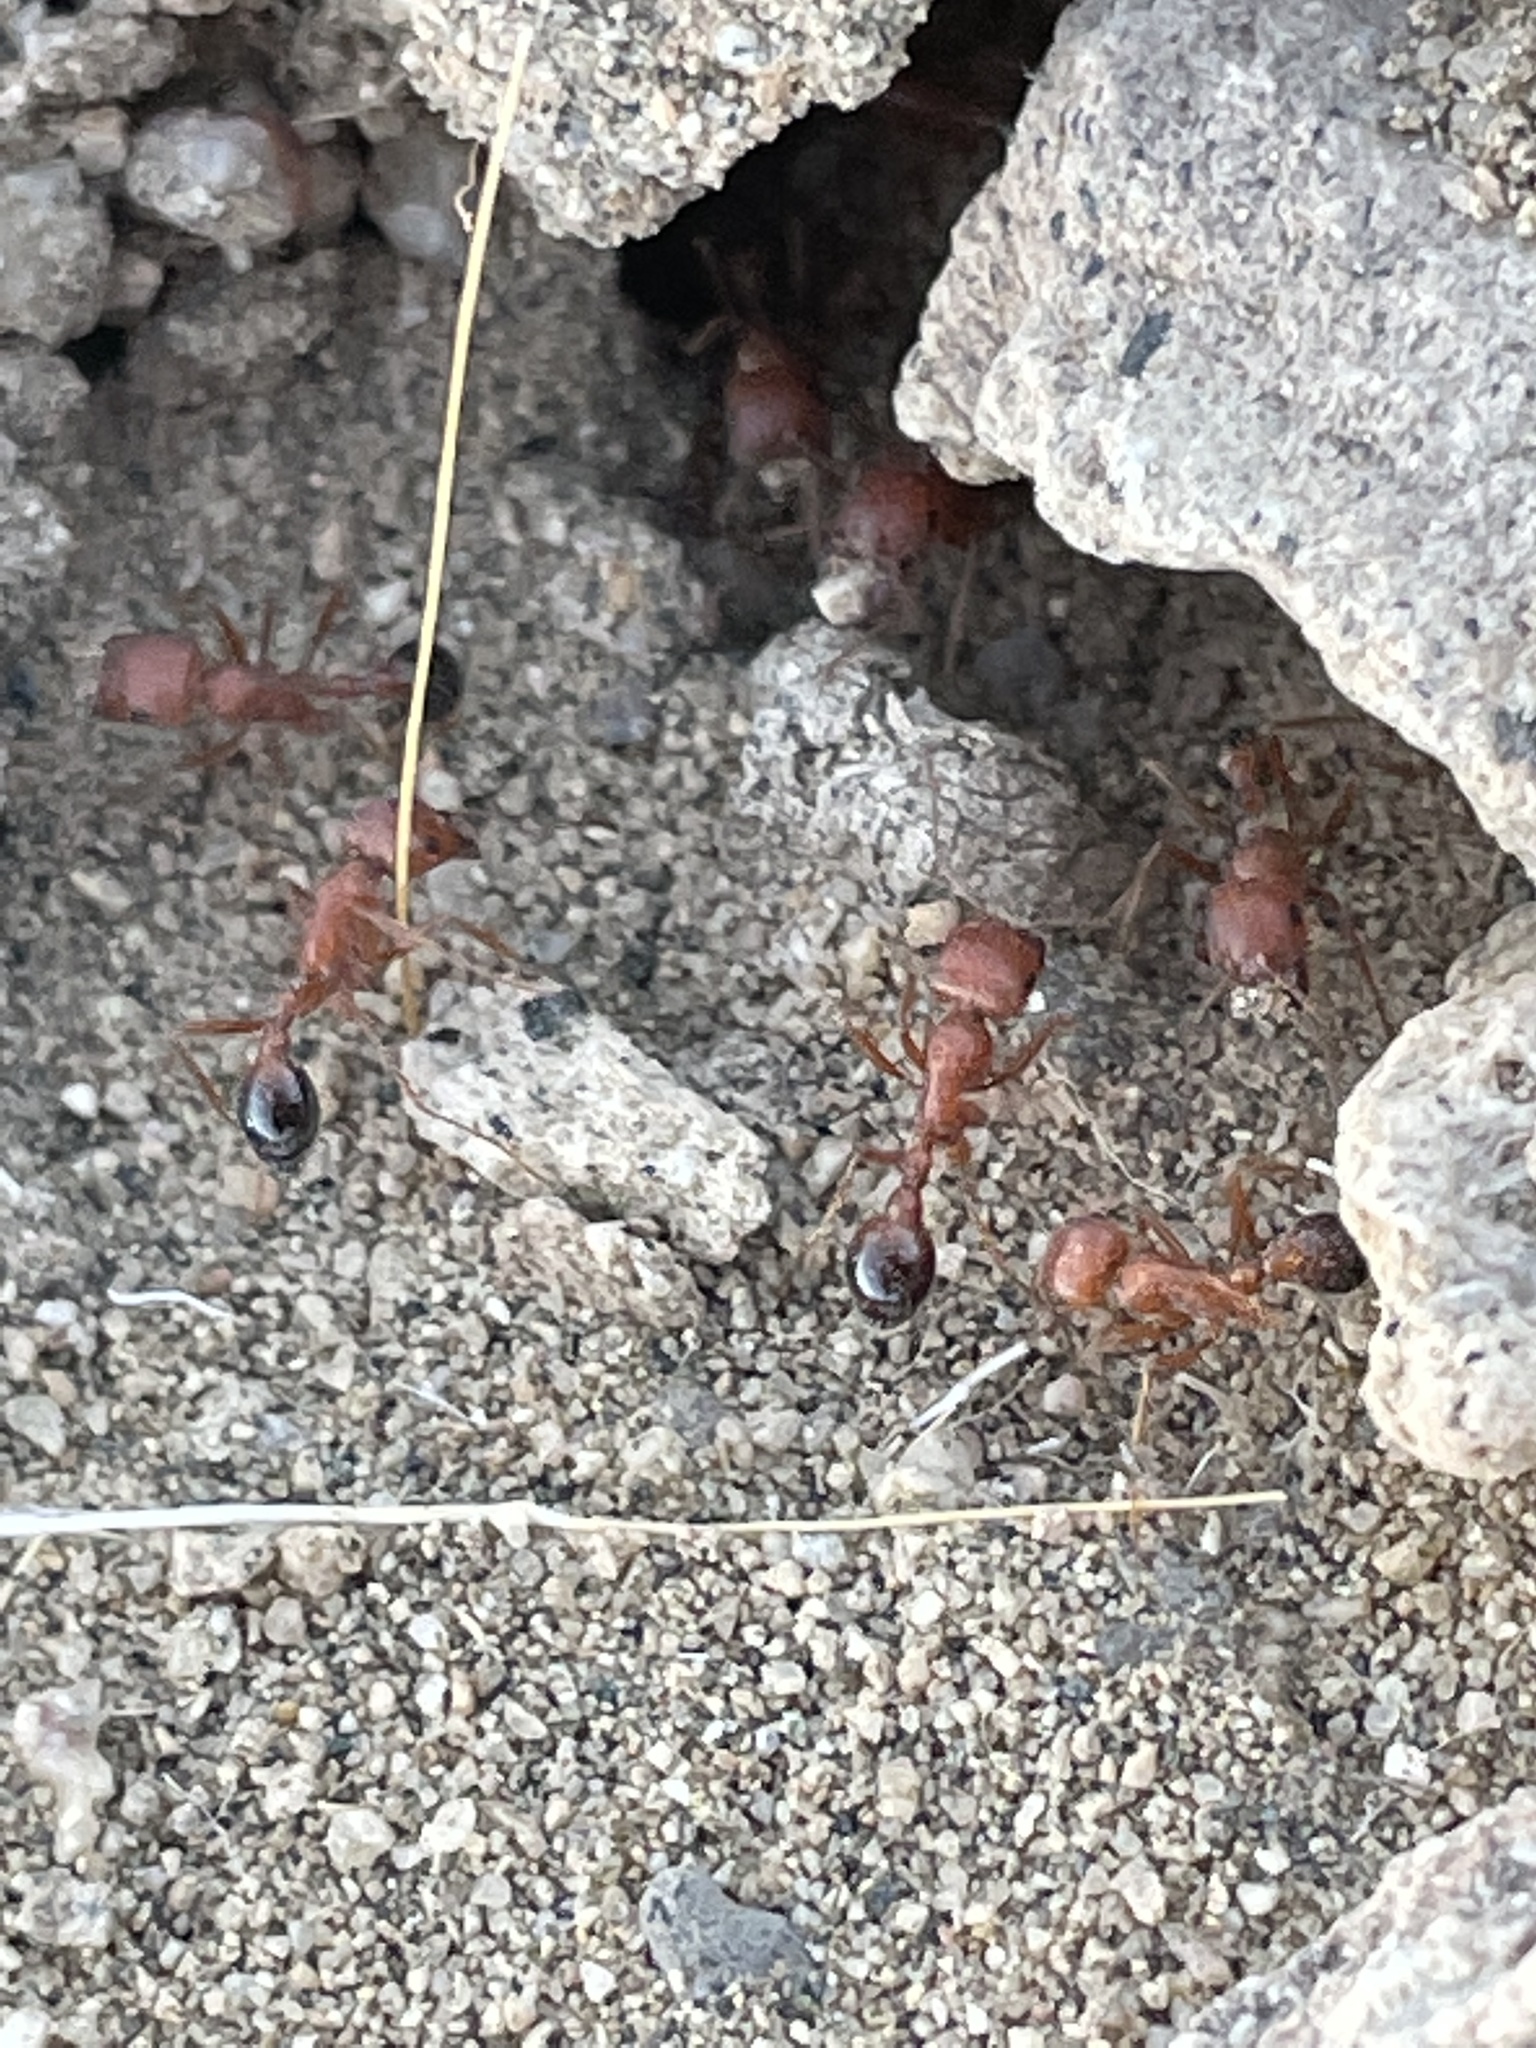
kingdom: Animalia
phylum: Arthropoda
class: Insecta
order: Hymenoptera
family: Formicidae
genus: Pogonomyrmex
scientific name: Pogonomyrmex californicus
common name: California harvester ant
